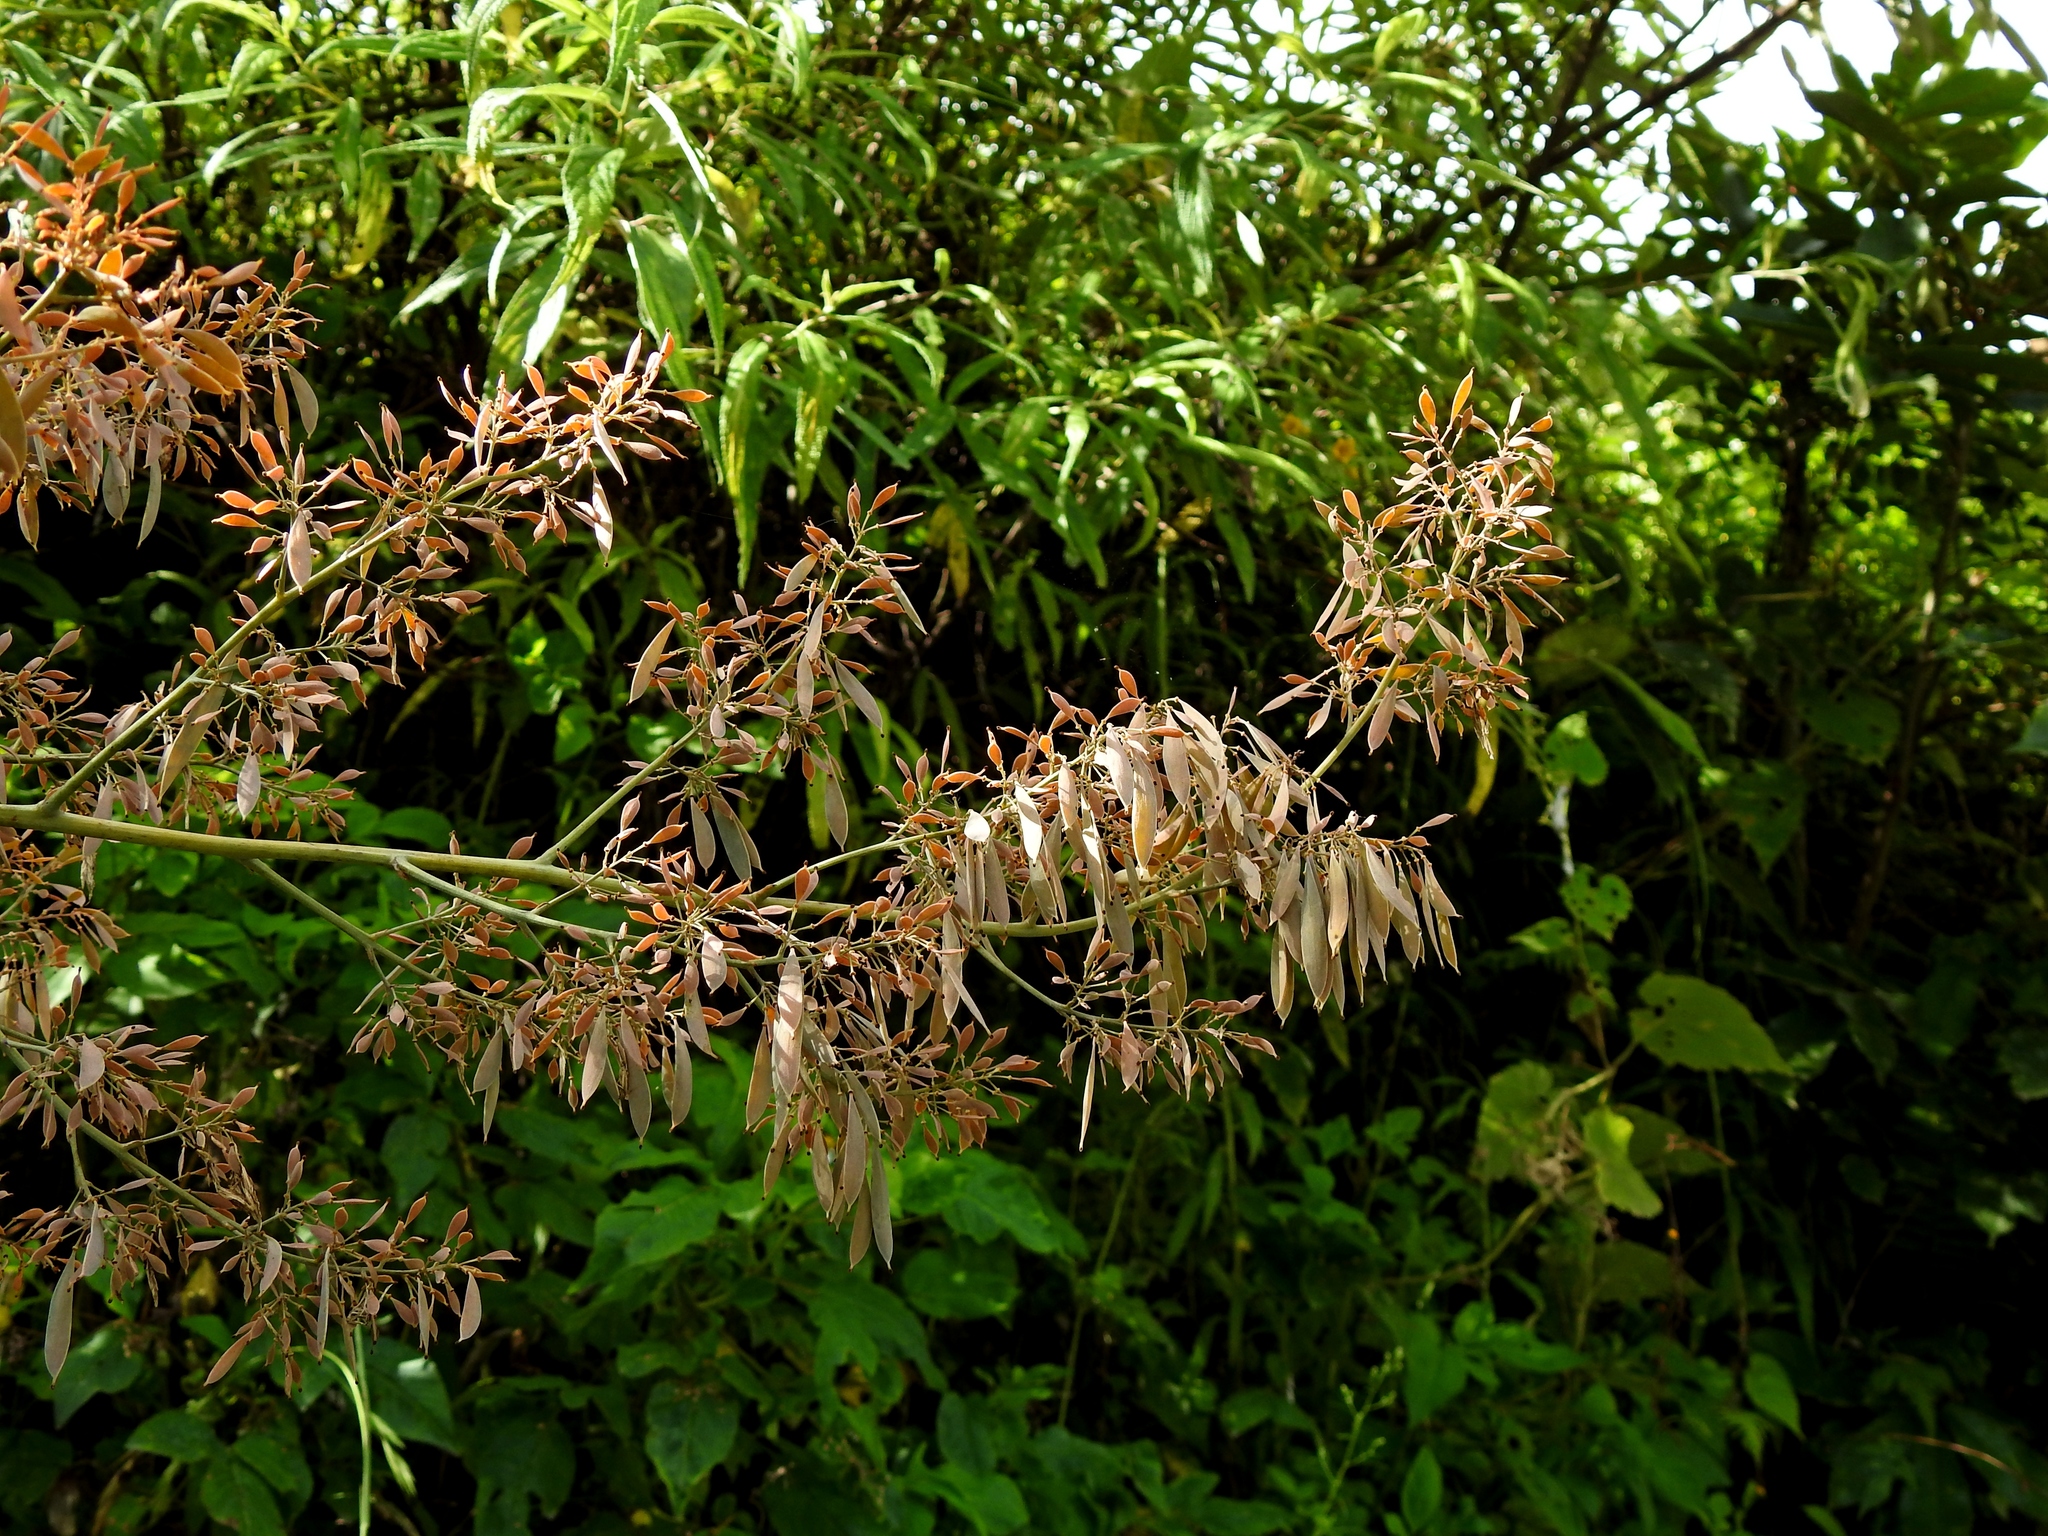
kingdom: Plantae
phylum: Tracheophyta
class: Magnoliopsida
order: Ranunculales
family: Papaveraceae
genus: Macleaya
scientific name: Macleaya cordata
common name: Plume poppy
